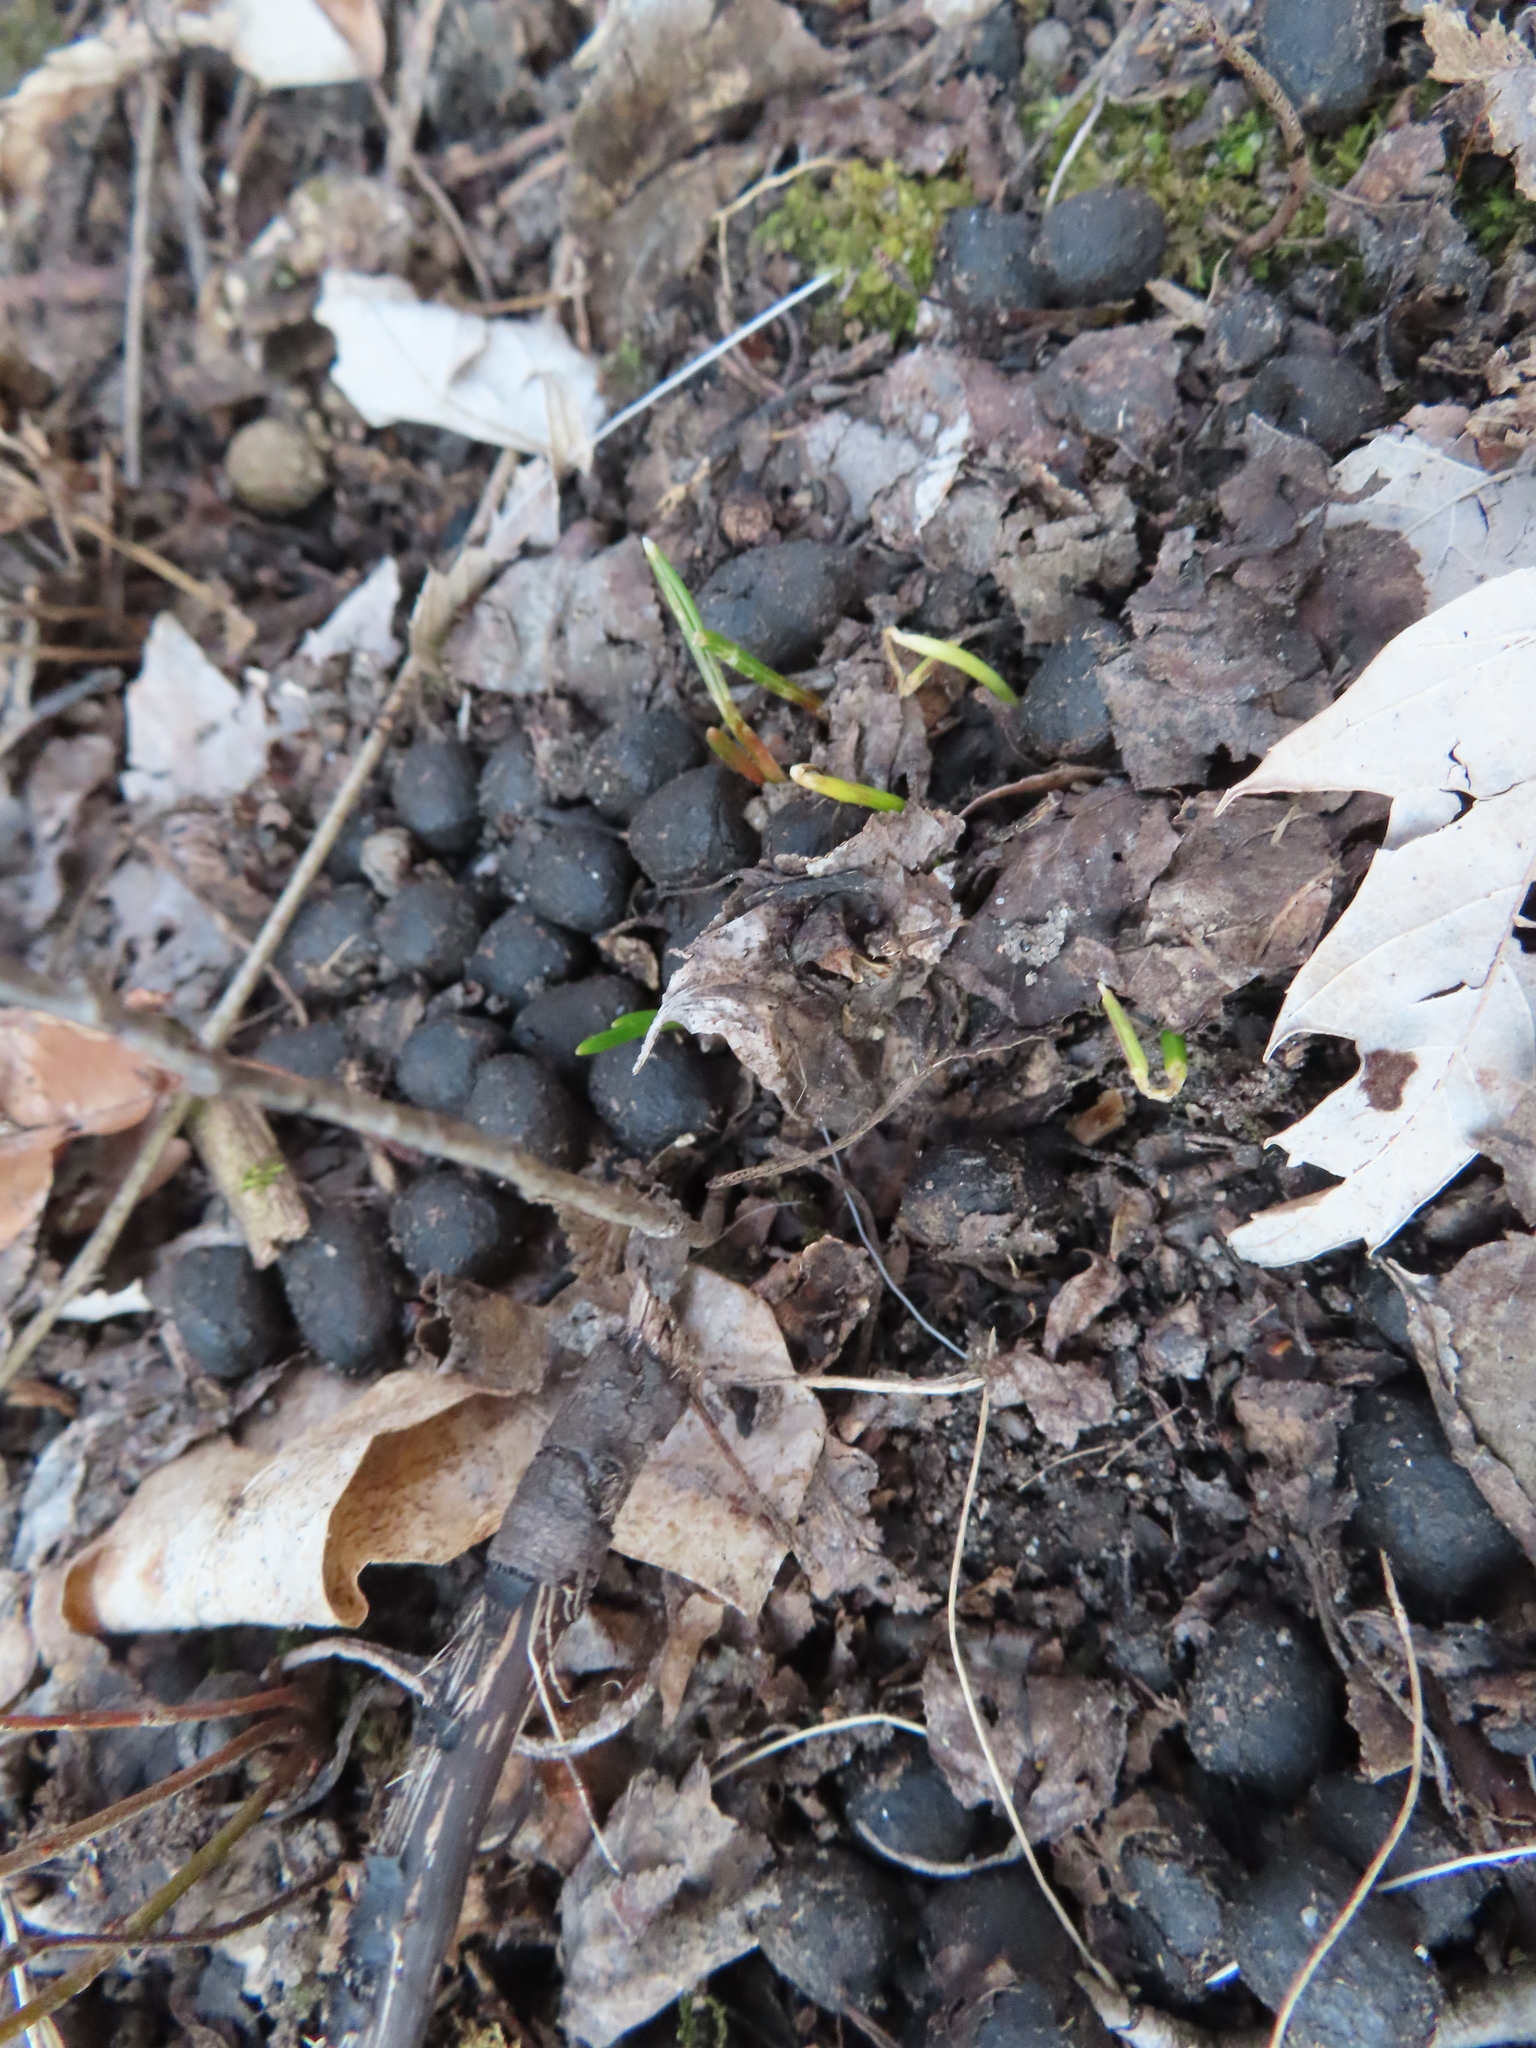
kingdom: Animalia
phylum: Chordata
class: Mammalia
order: Artiodactyla
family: Cervidae
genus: Odocoileus
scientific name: Odocoileus virginianus
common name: White-tailed deer
